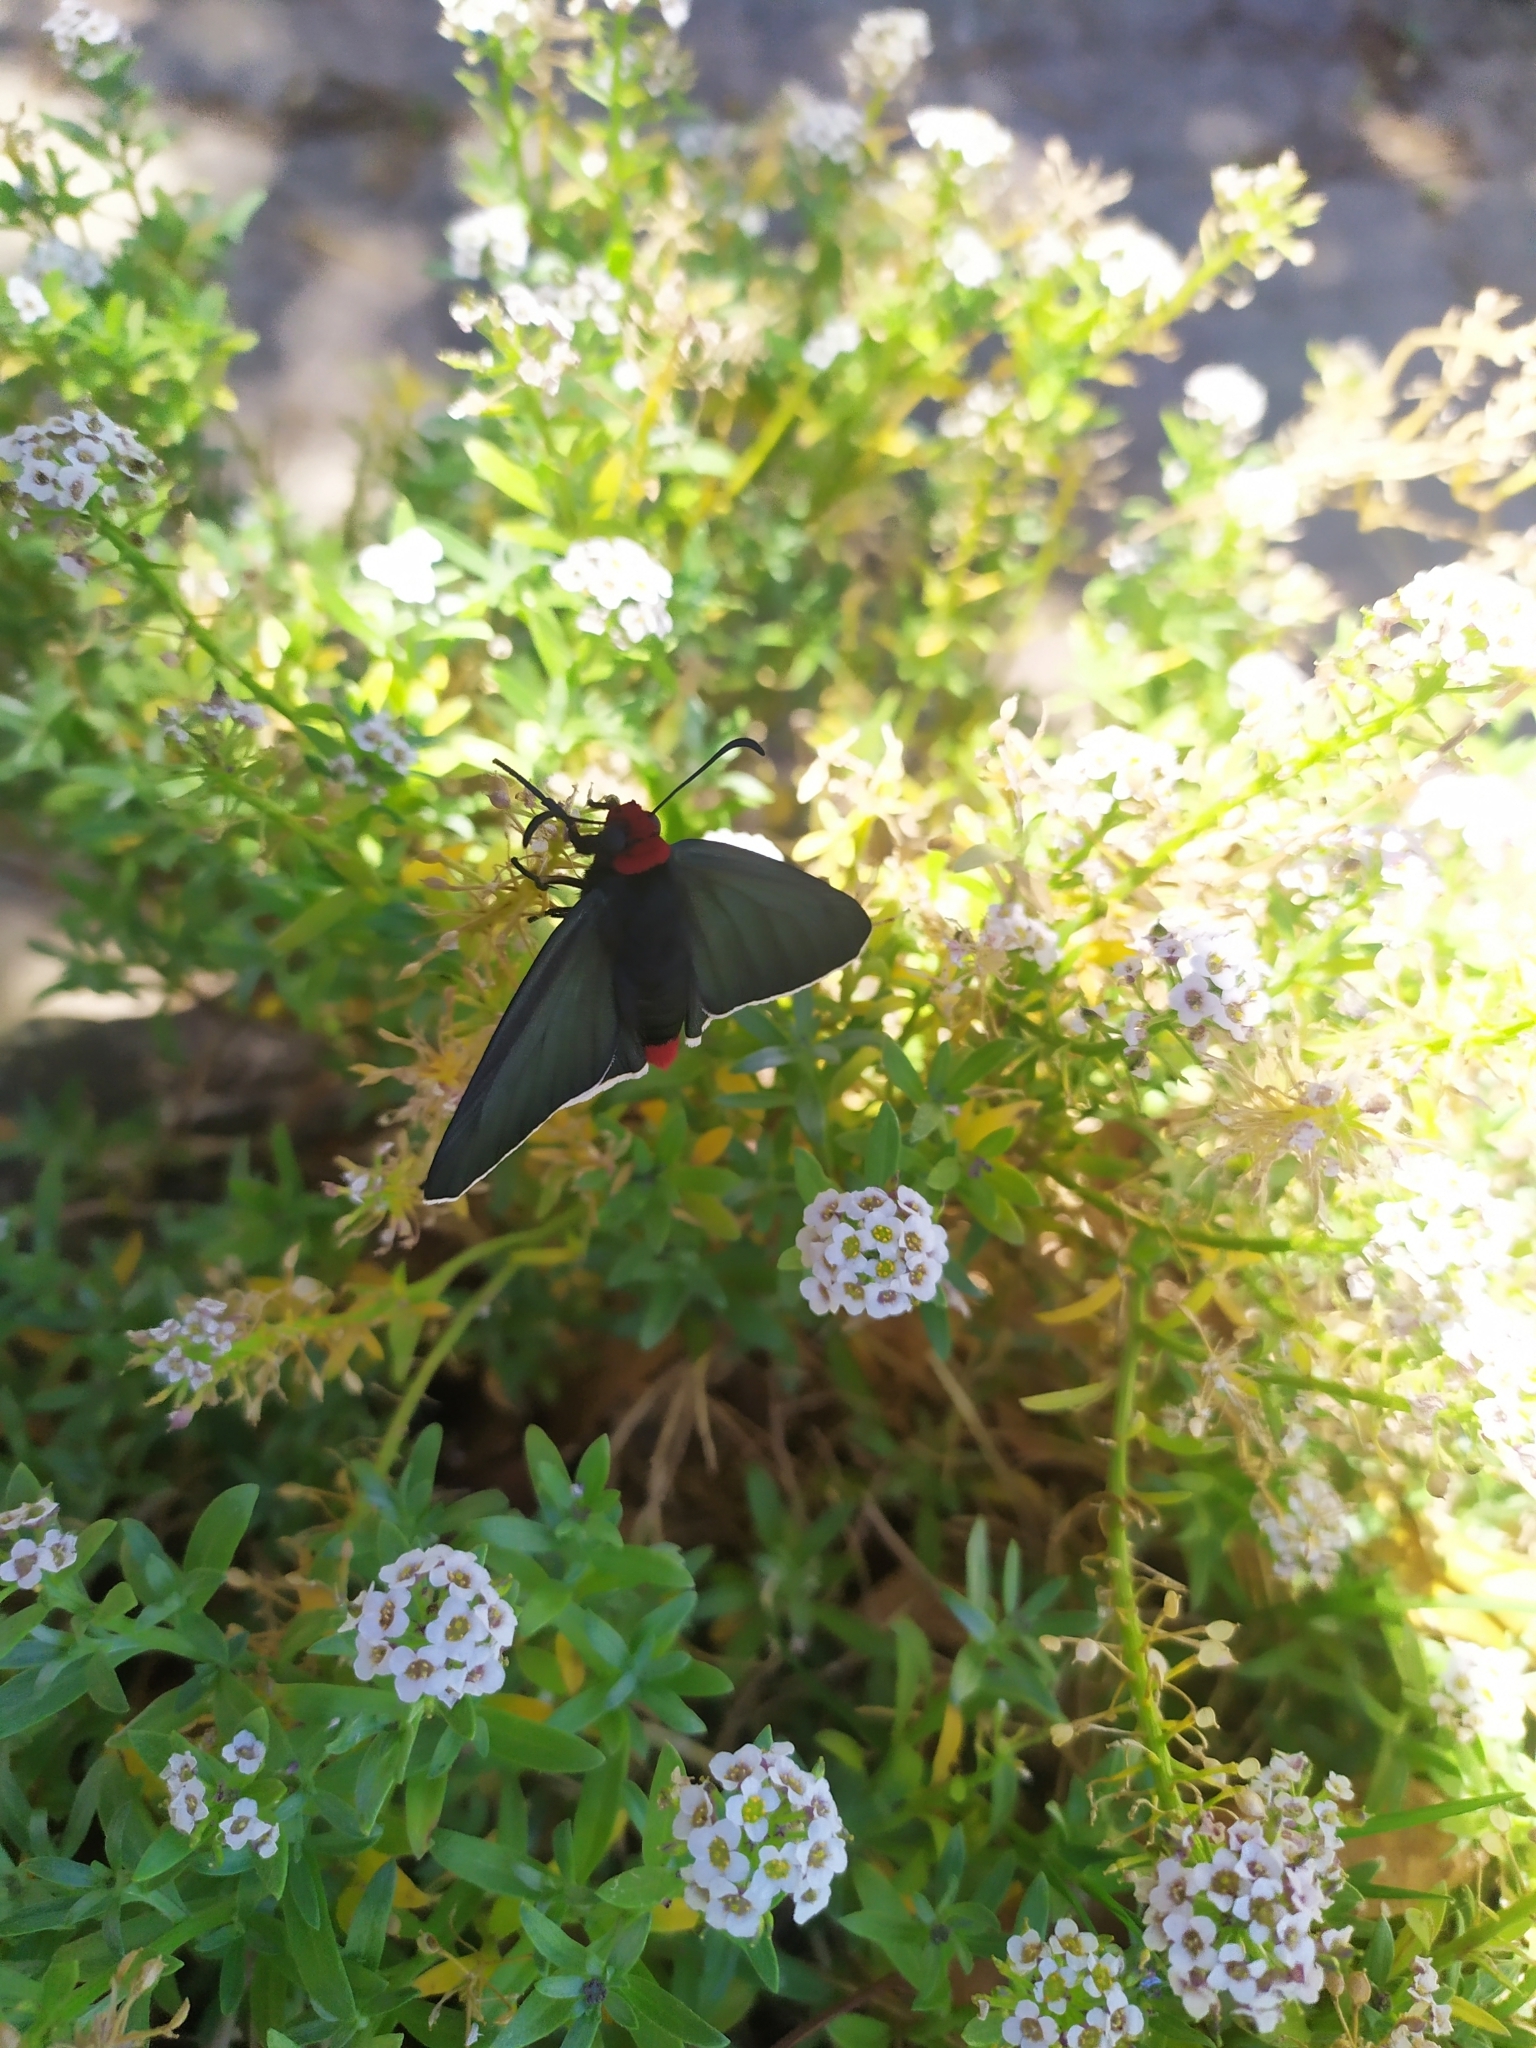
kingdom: Animalia
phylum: Arthropoda
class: Insecta
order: Lepidoptera
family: Hesperiidae
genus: Pyrrhopyge
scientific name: Pyrrhopyge charybdis
